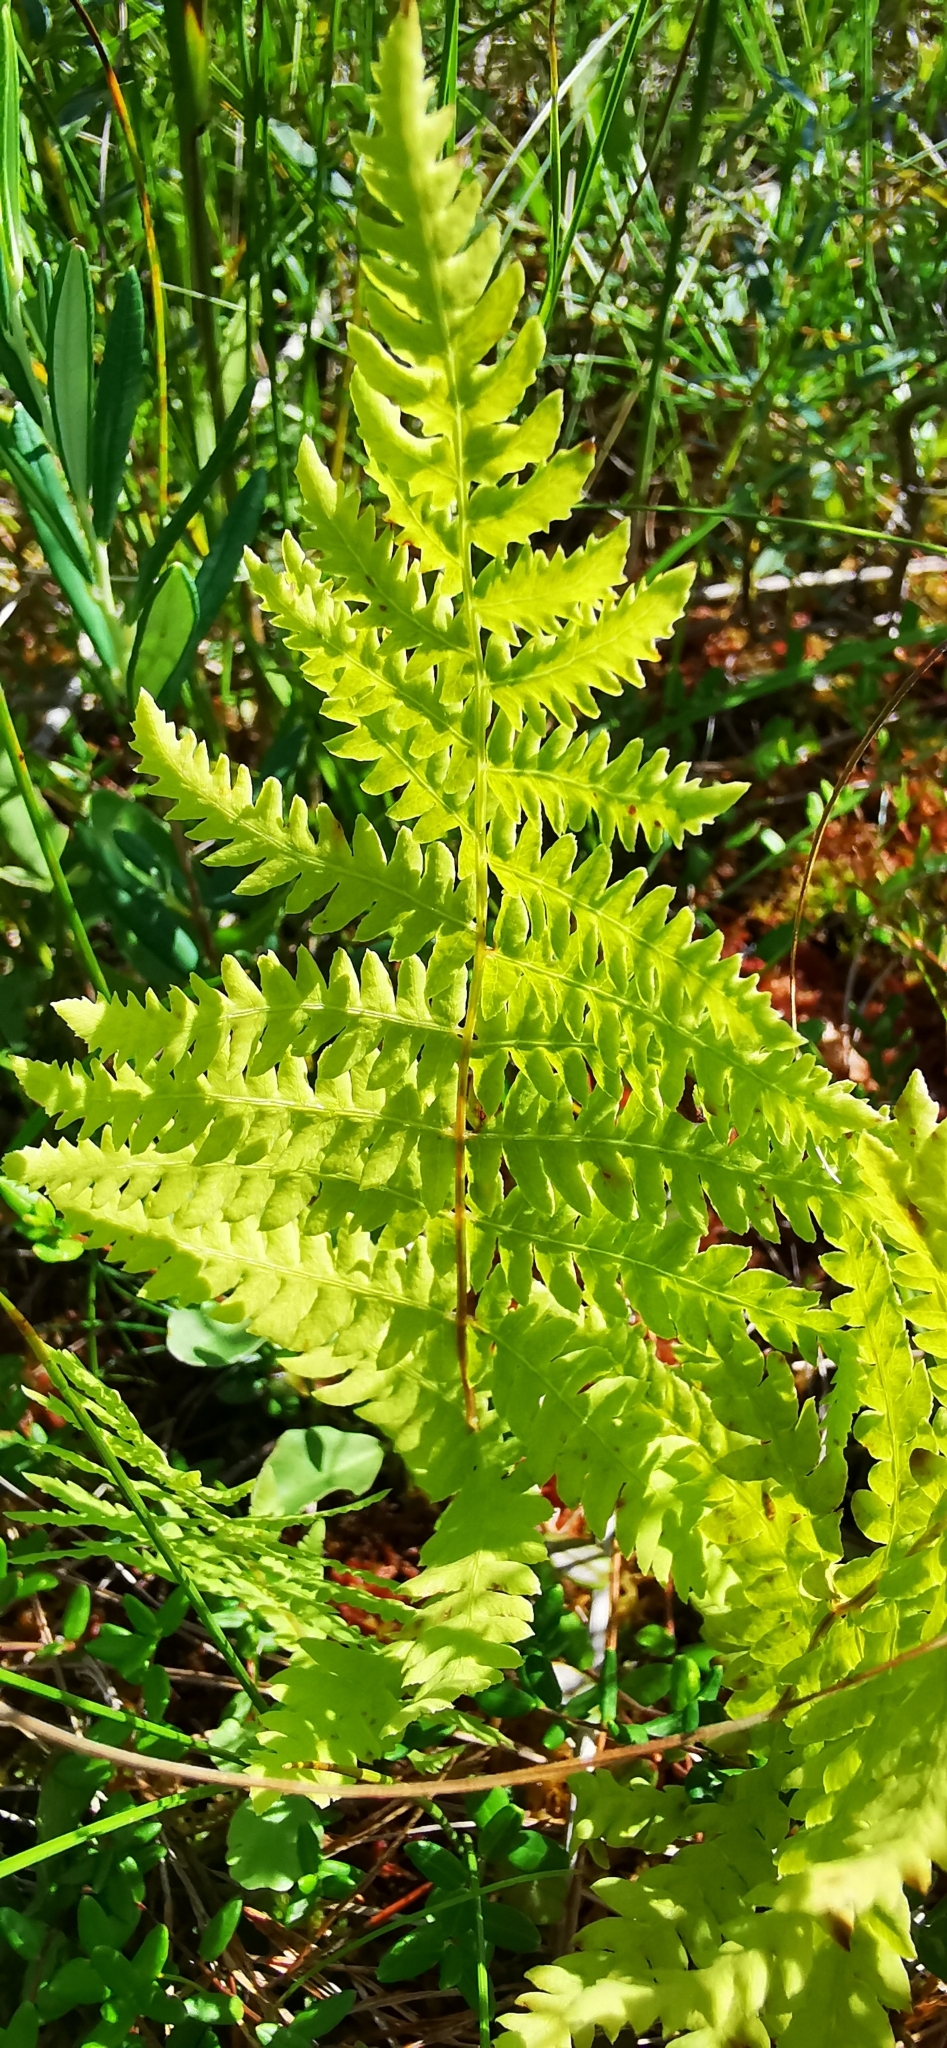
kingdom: Plantae
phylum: Tracheophyta
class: Polypodiopsida
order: Polypodiales
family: Thelypteridaceae
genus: Thelypteris
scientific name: Thelypteris palustris
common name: Marsh fern
